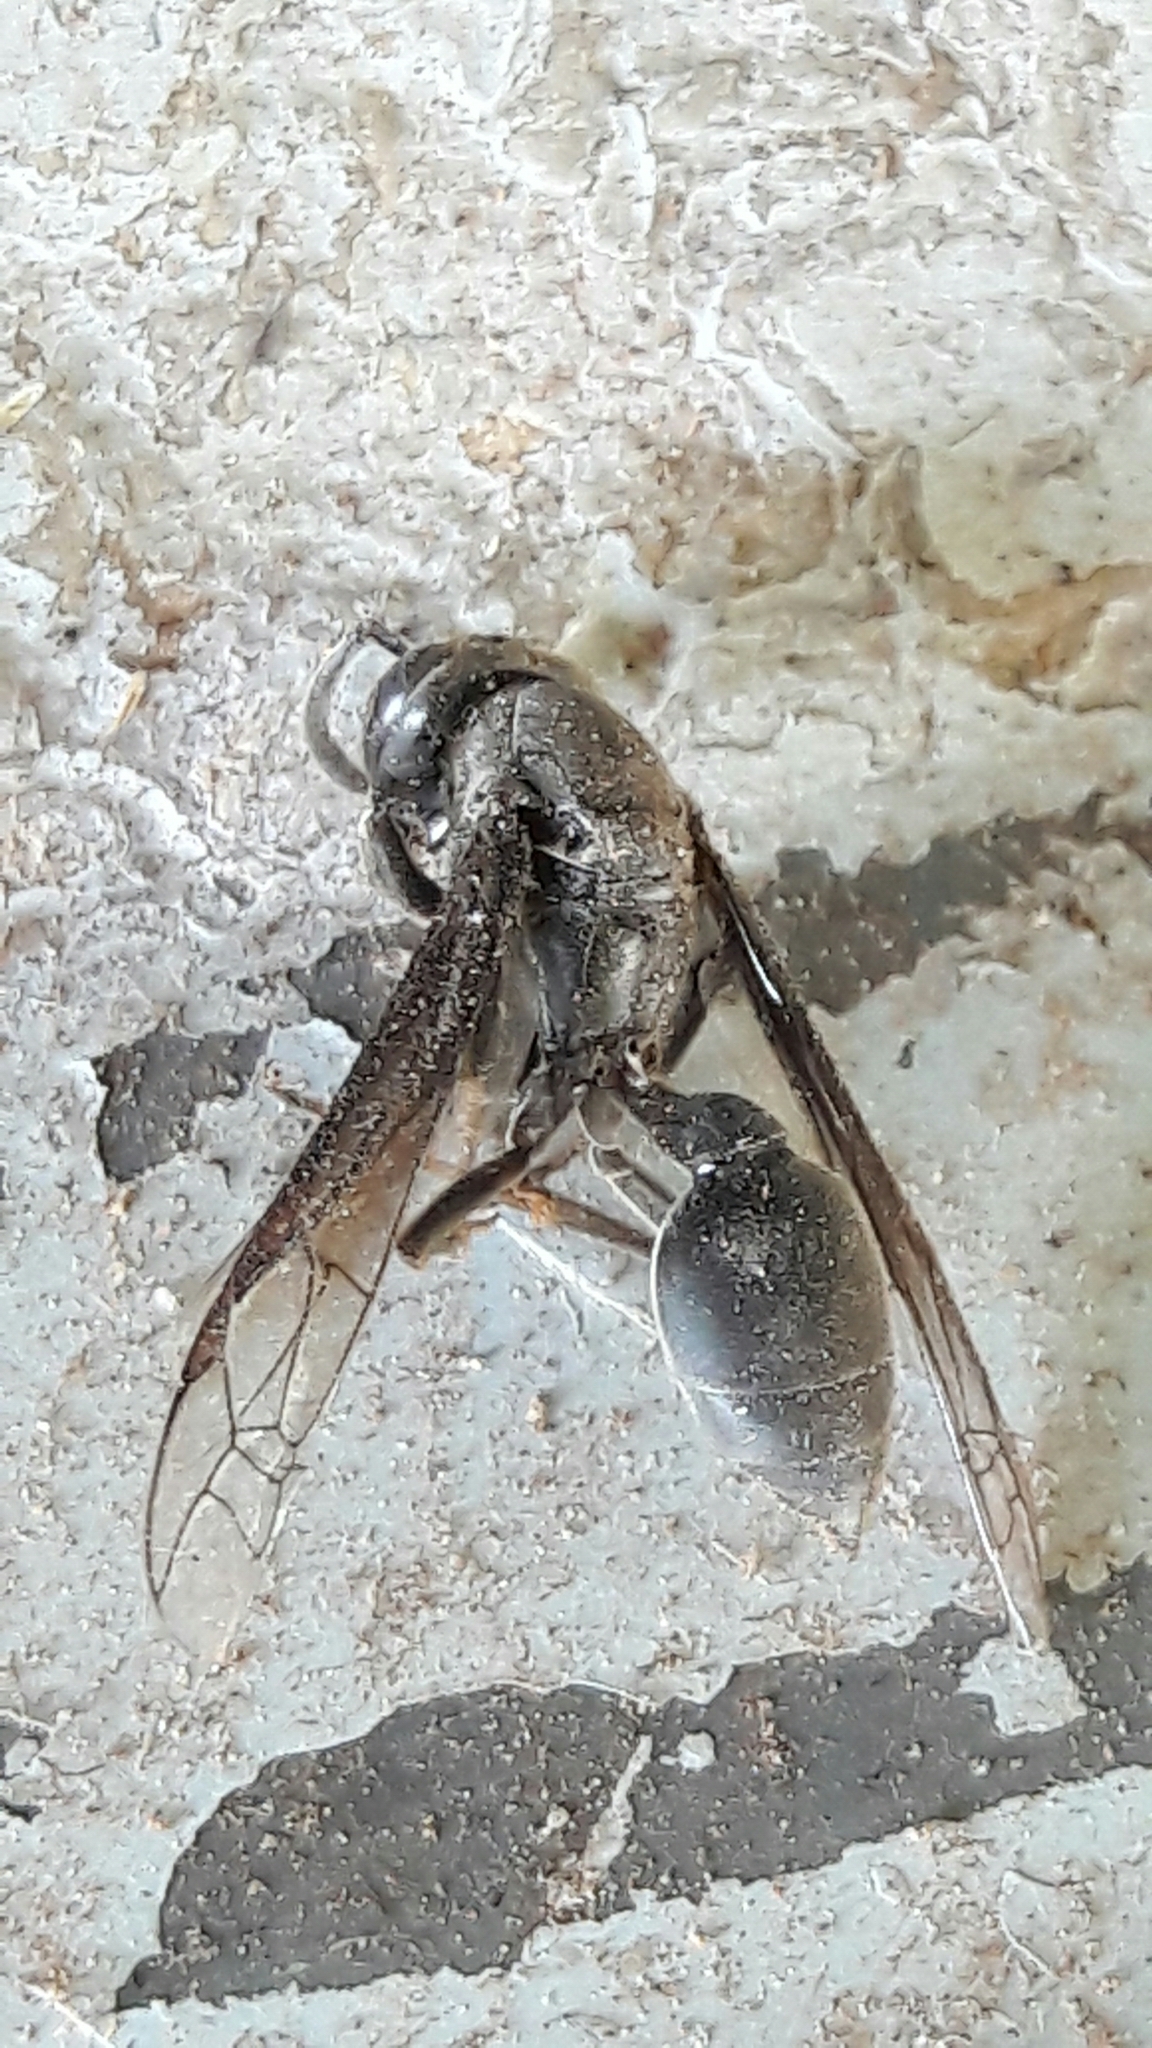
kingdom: Animalia
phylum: Arthropoda
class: Insecta
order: Hymenoptera
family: Eumenidae
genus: Polybia
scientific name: Polybia ignobilis
